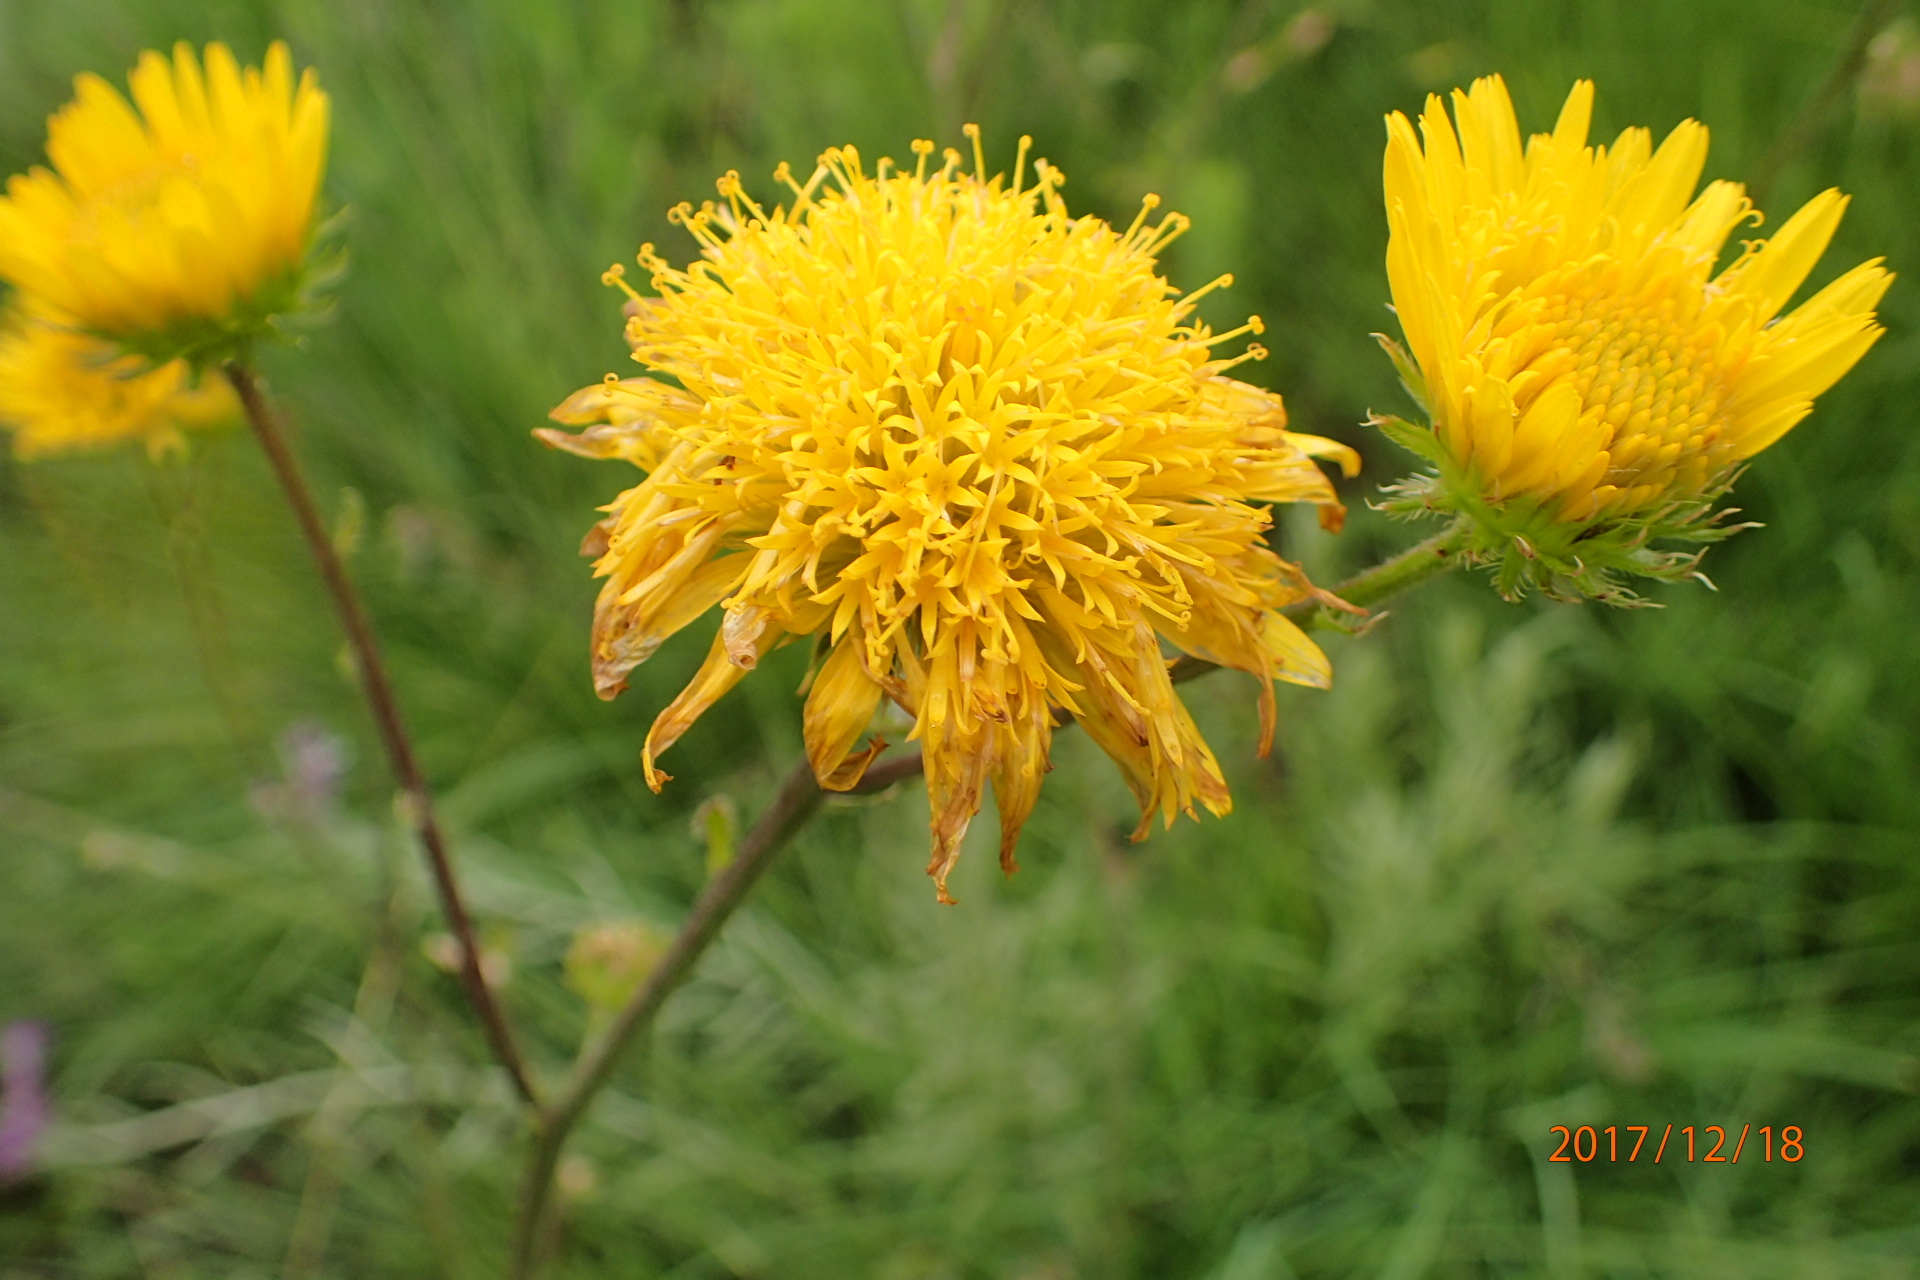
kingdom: Plantae
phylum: Tracheophyta
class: Magnoliopsida
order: Asterales
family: Asteraceae
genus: Berkheya
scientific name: Berkheya setifera
